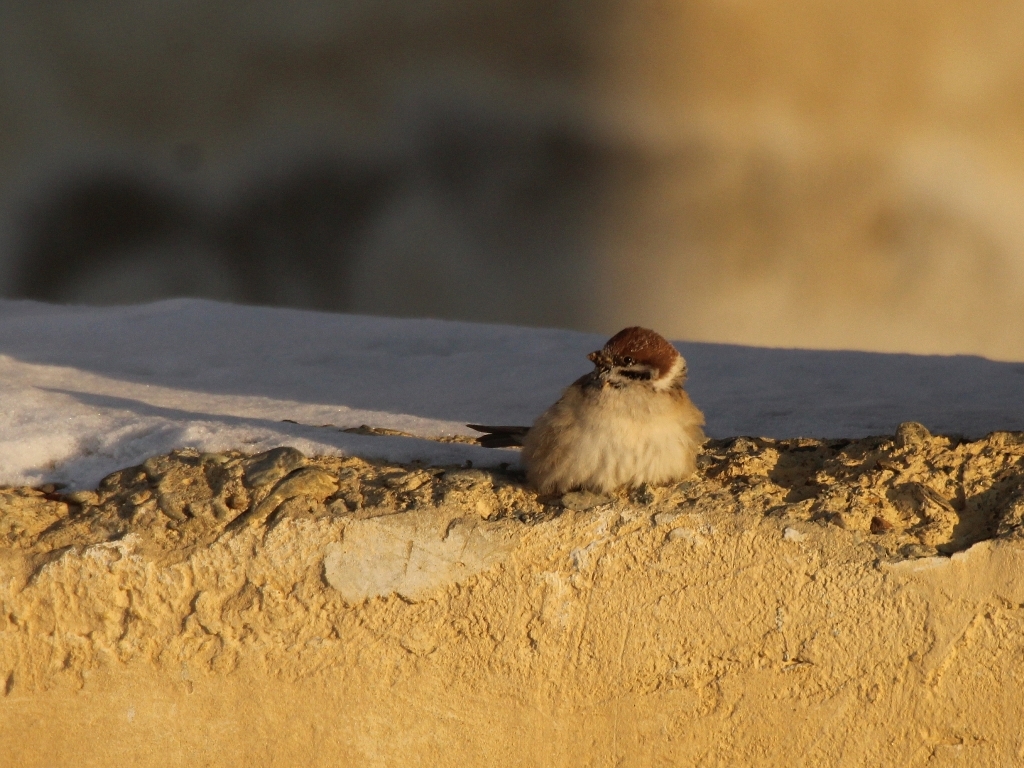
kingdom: Animalia
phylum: Chordata
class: Aves
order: Passeriformes
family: Passeridae
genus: Passer
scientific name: Passer montanus
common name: Eurasian tree sparrow
